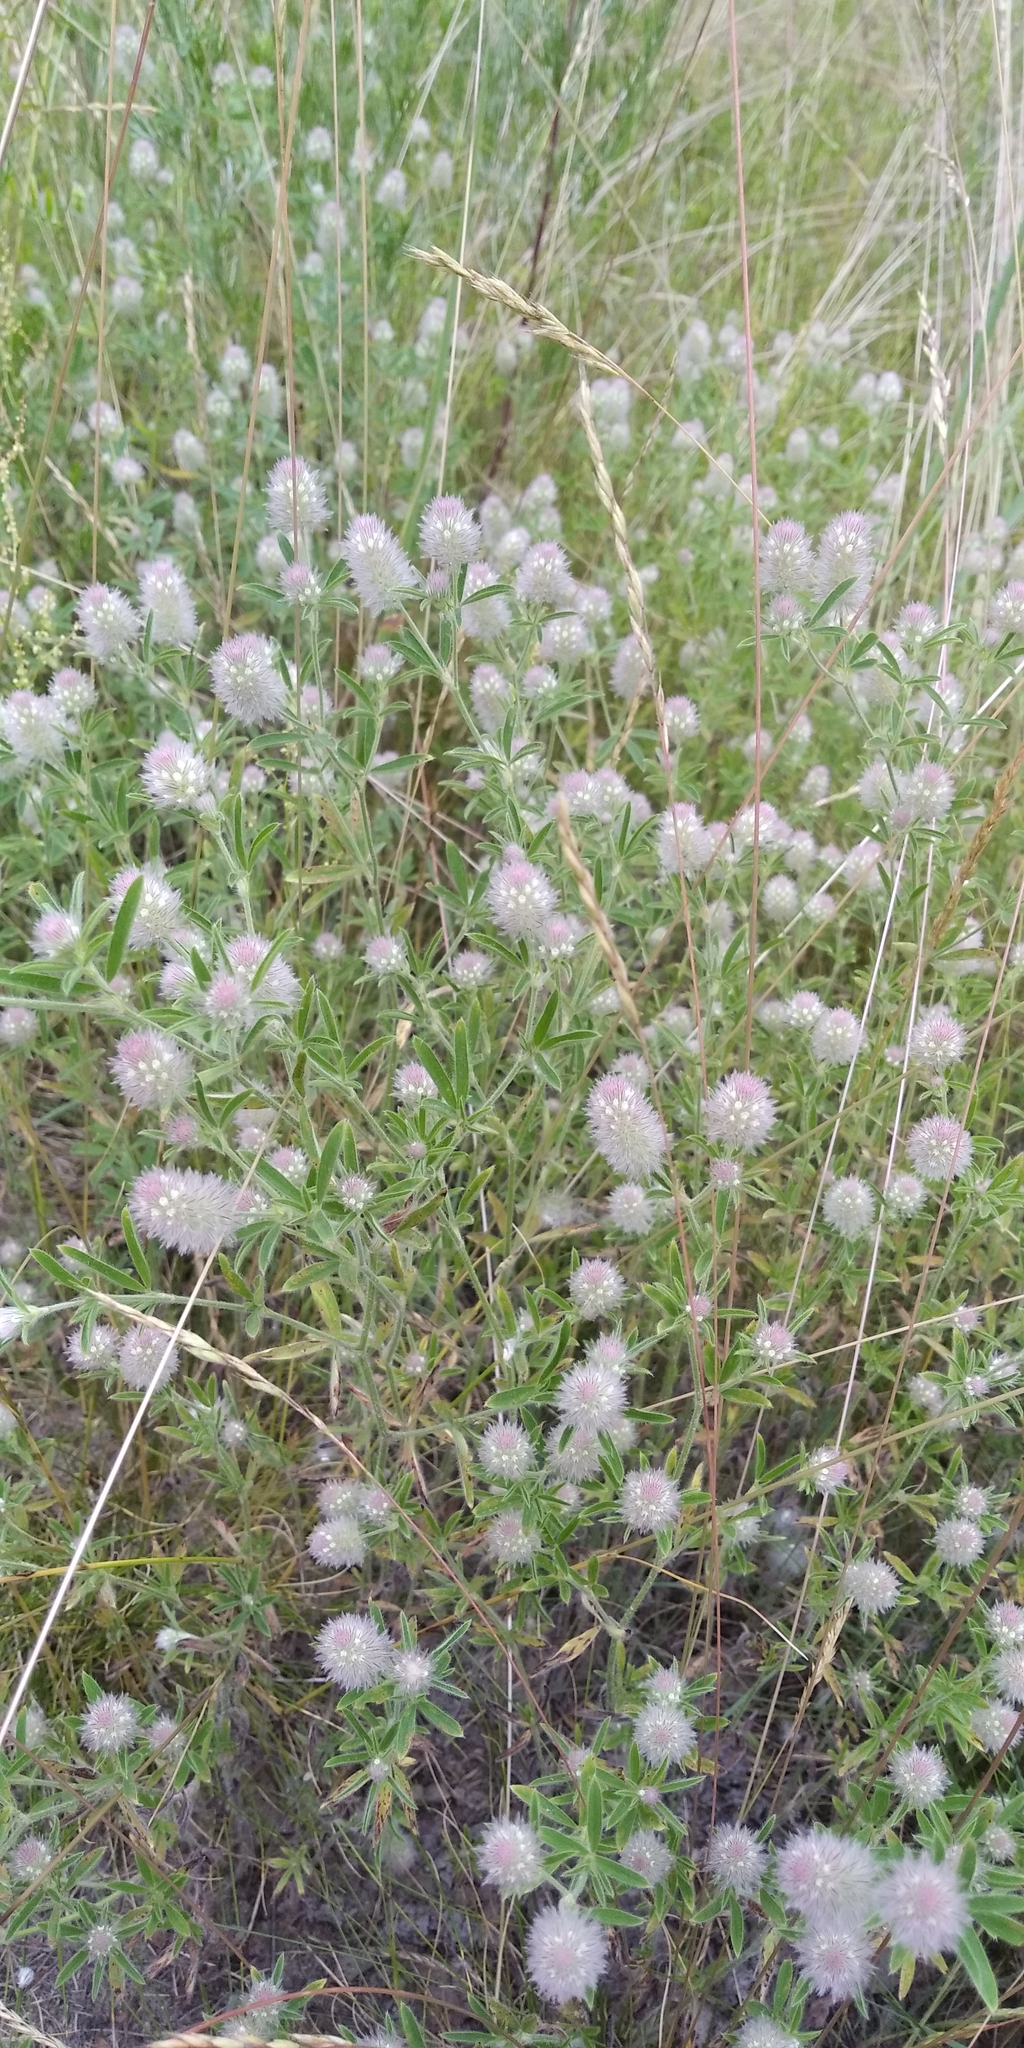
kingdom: Plantae
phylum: Tracheophyta
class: Magnoliopsida
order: Fabales
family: Fabaceae
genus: Trifolium
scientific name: Trifolium arvense
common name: Hare's-foot clover
